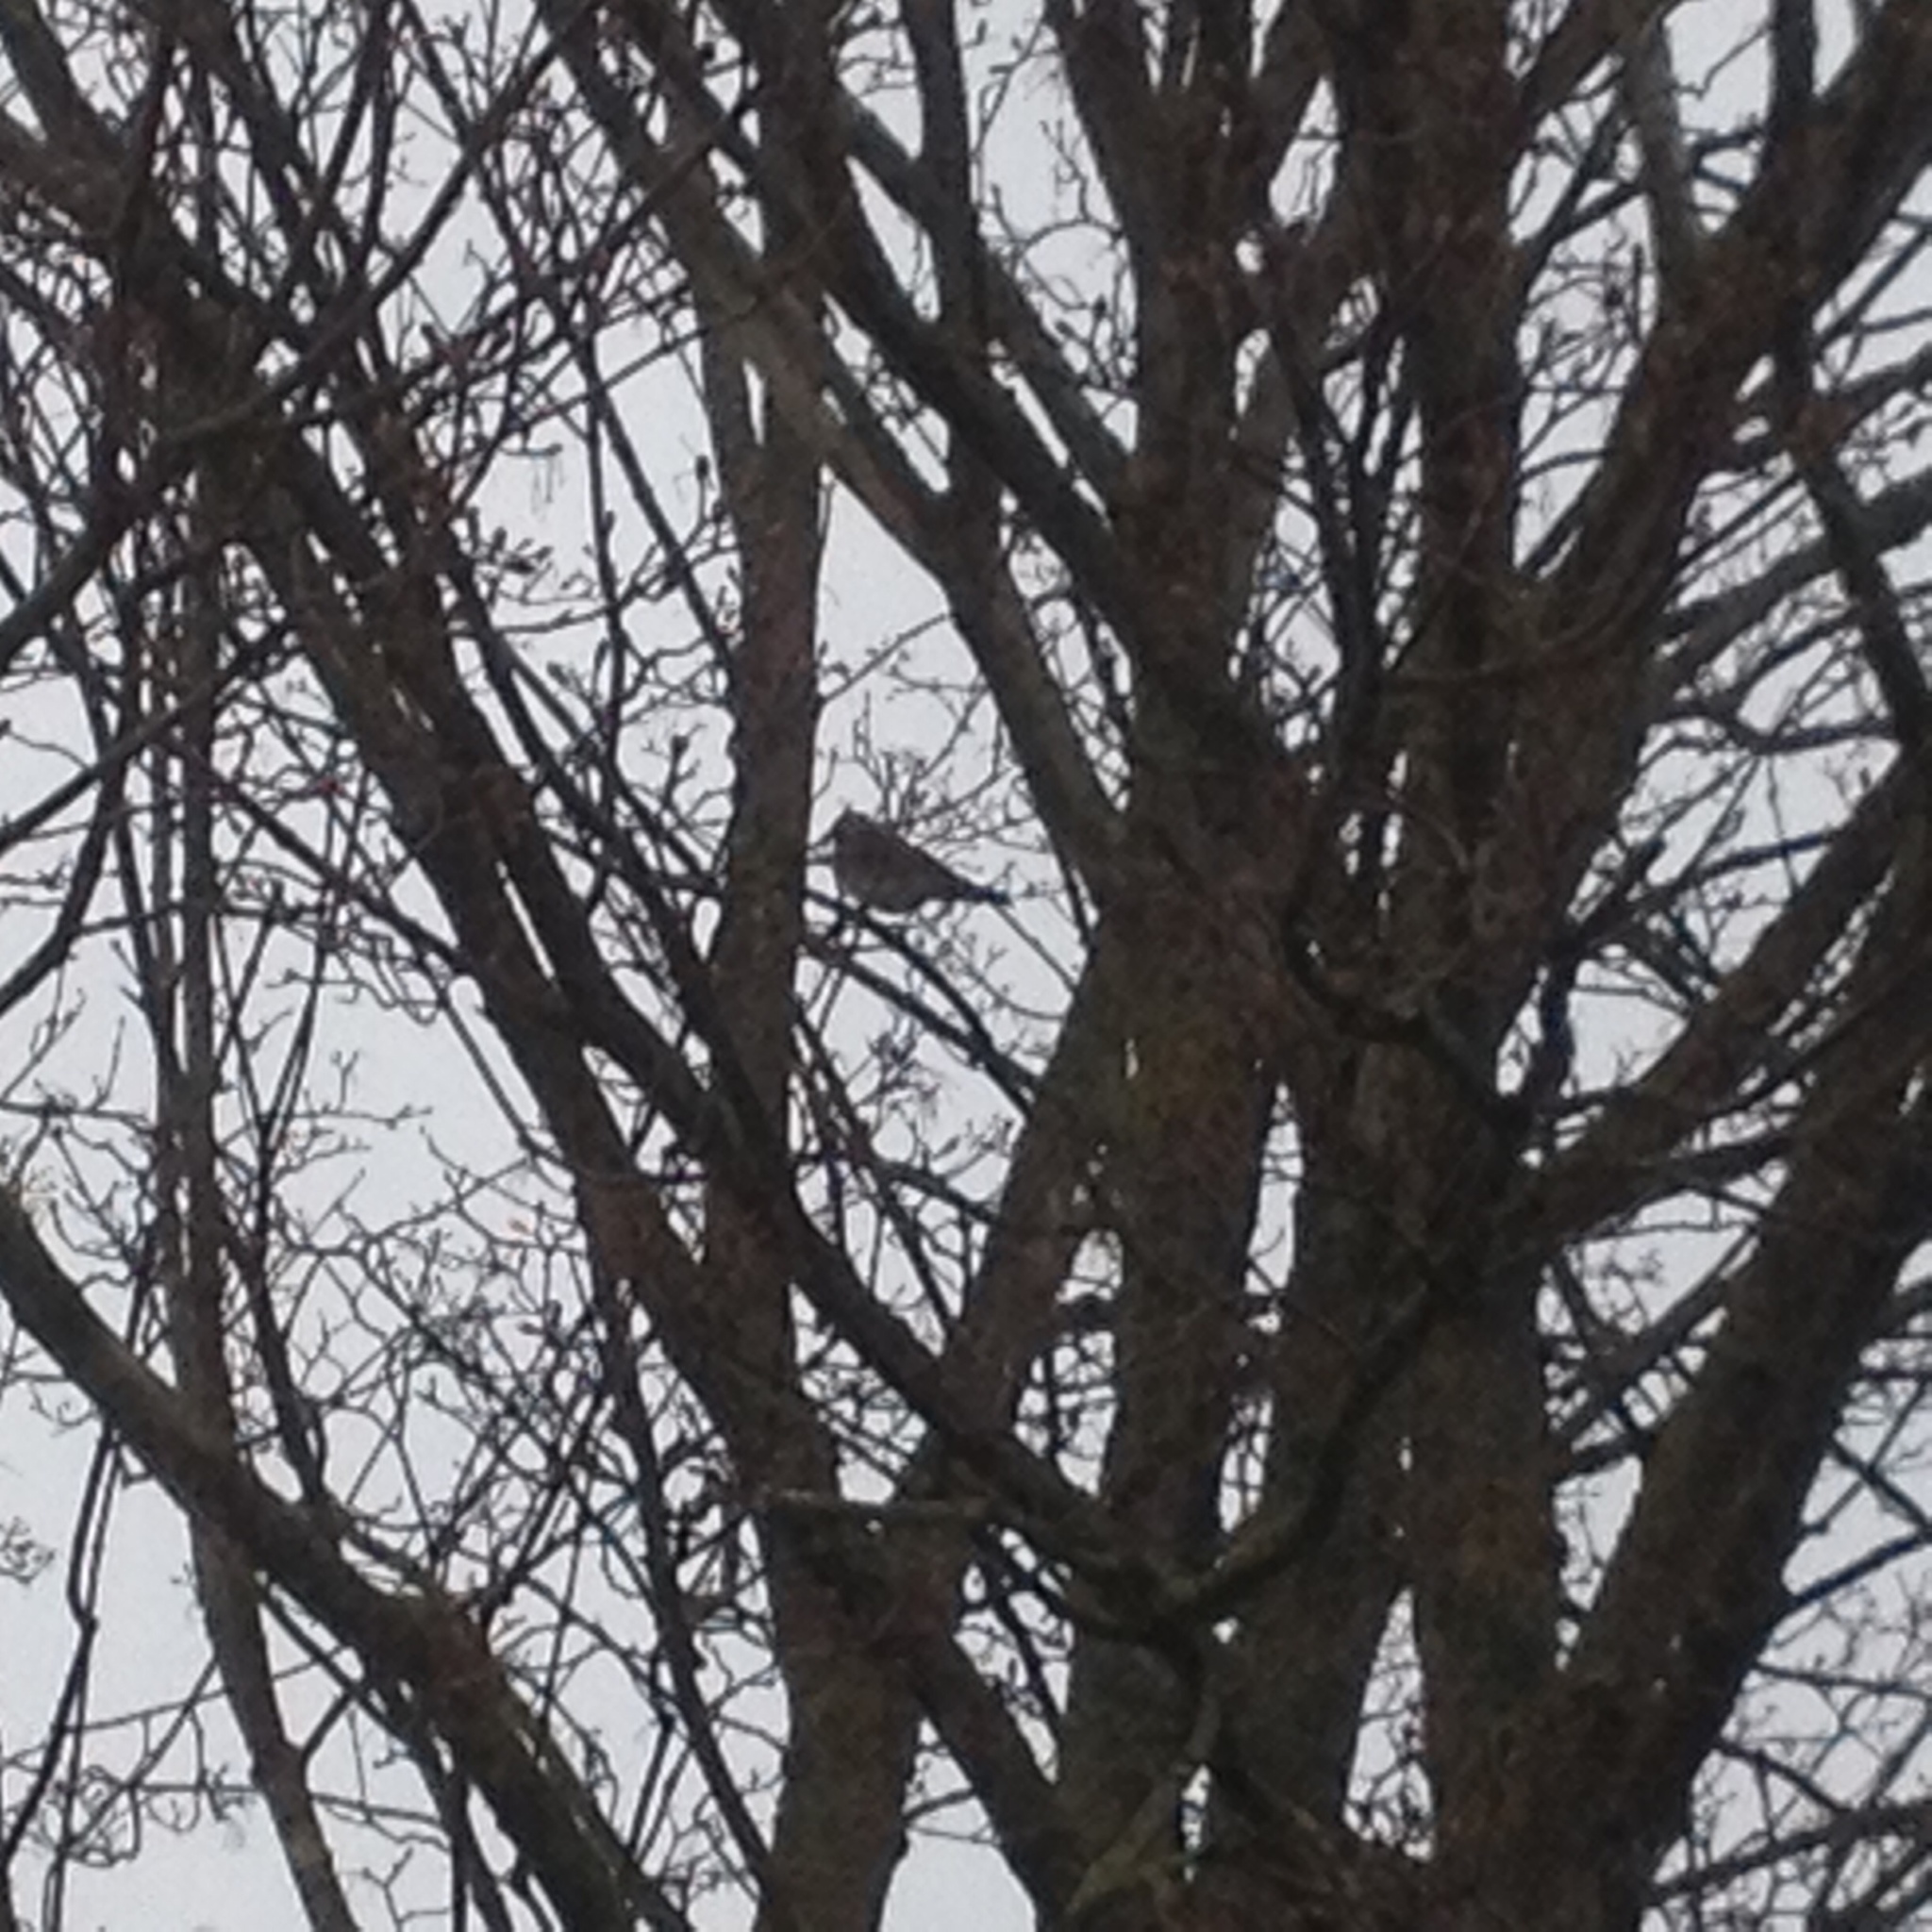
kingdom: Animalia
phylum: Chordata
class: Aves
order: Passeriformes
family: Turdidae
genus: Turdus
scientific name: Turdus pilaris
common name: Fieldfare
